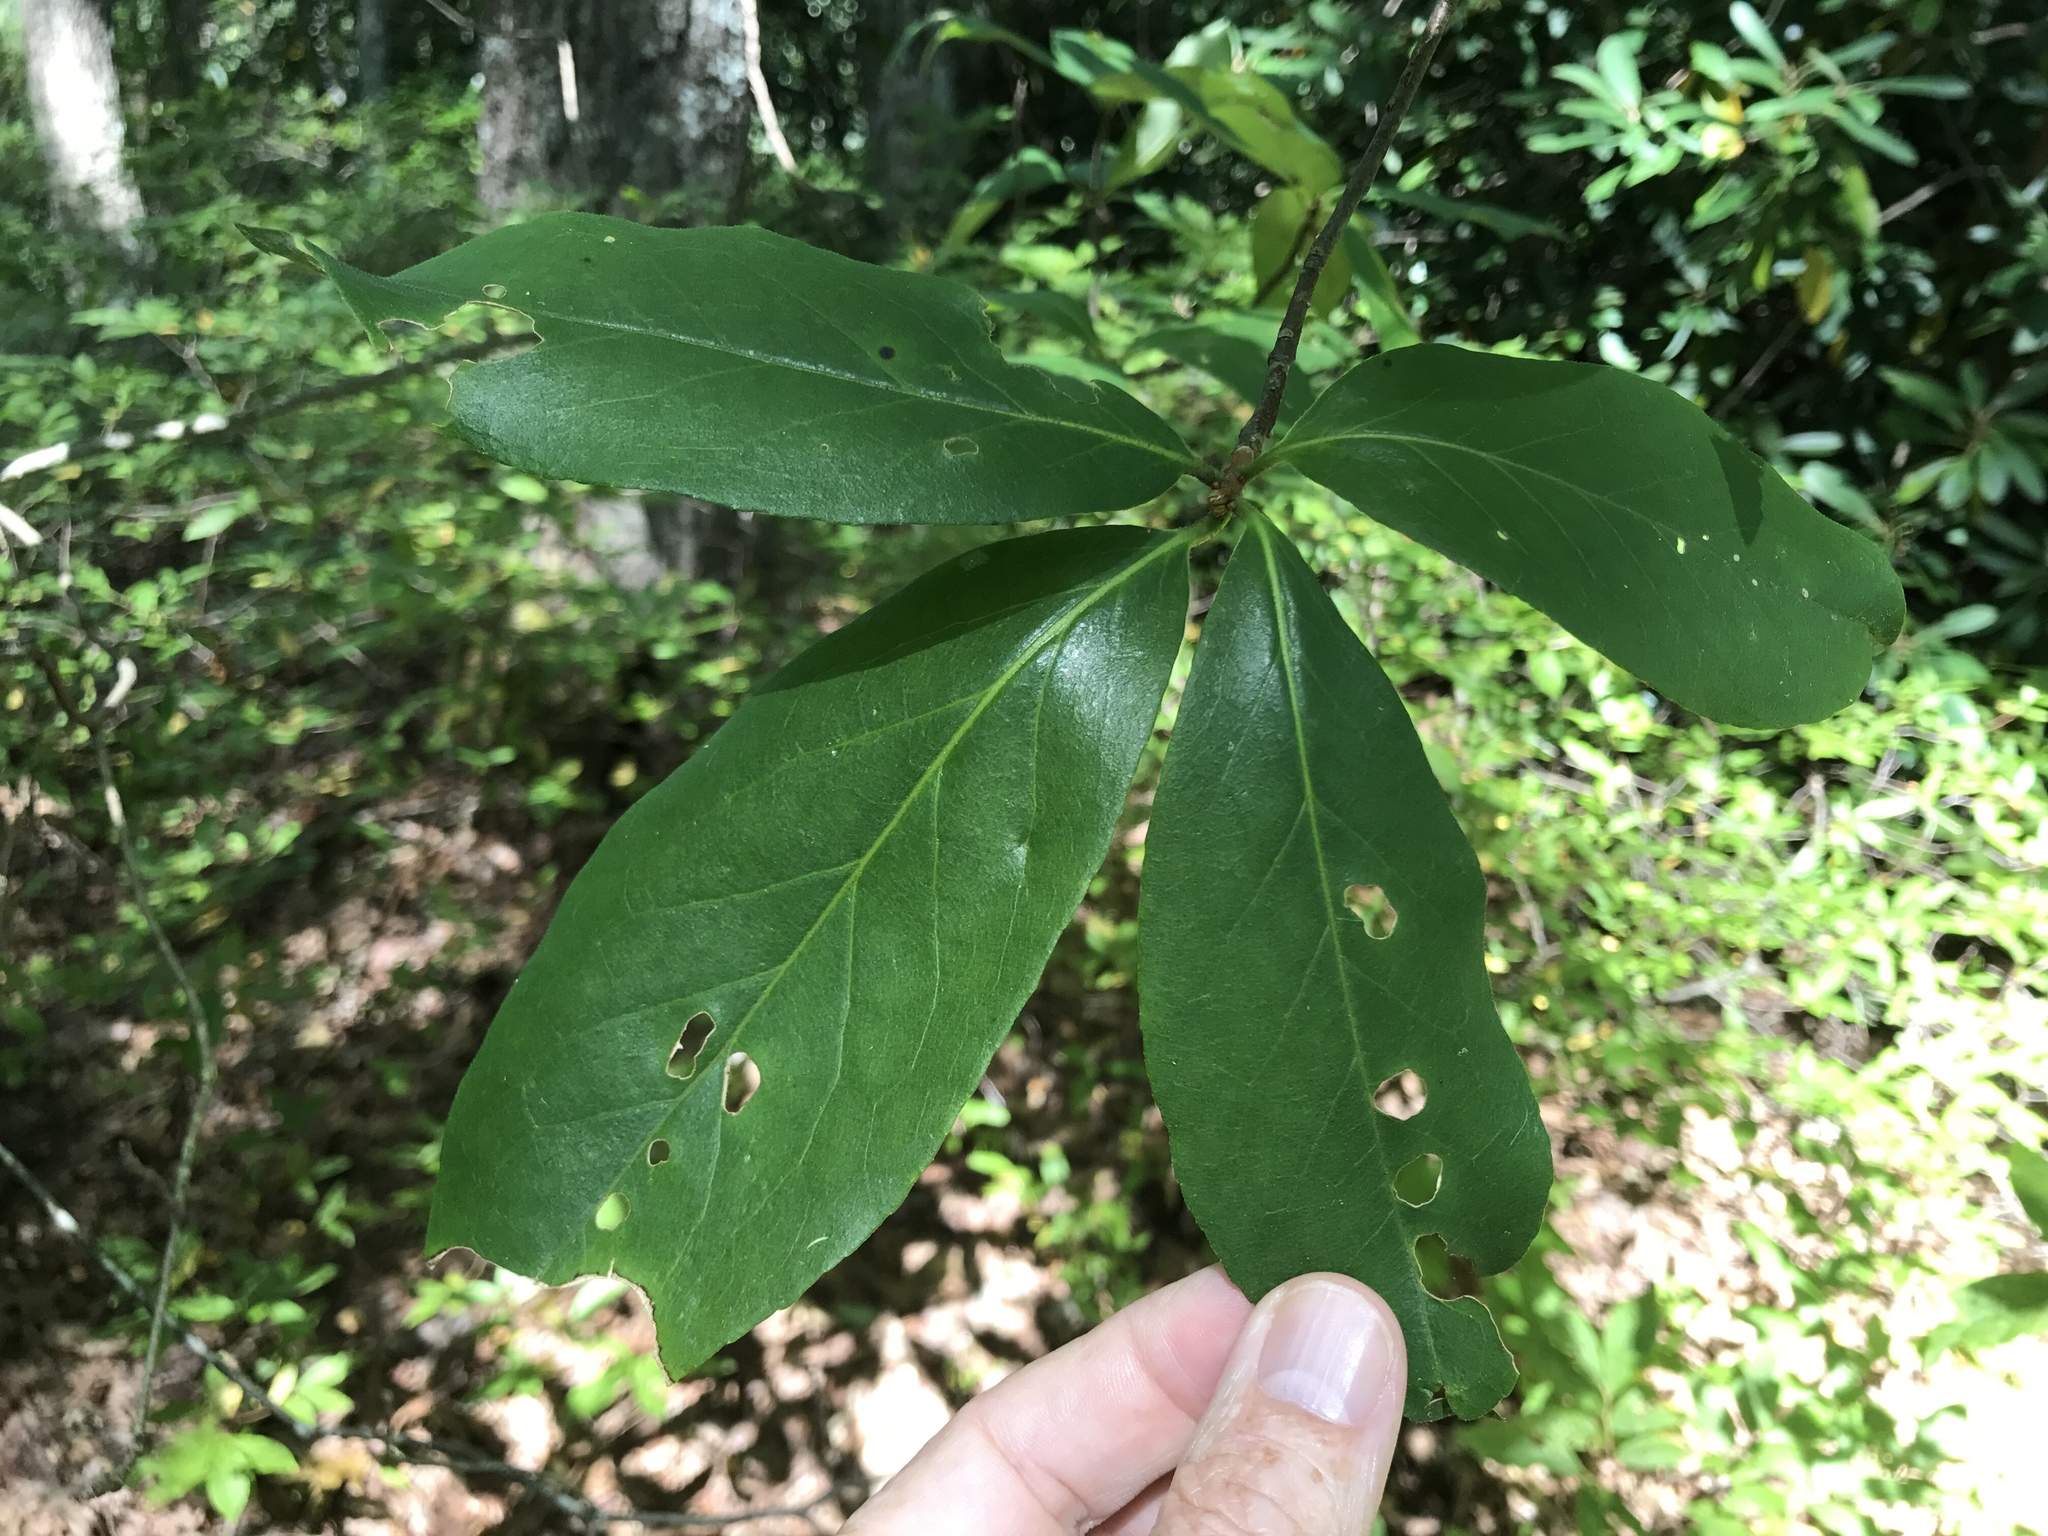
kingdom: Plantae
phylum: Tracheophyta
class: Magnoliopsida
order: Ericales
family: Symplocaceae
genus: Symplocos
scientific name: Symplocos tinctoria
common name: Horse-sugar
